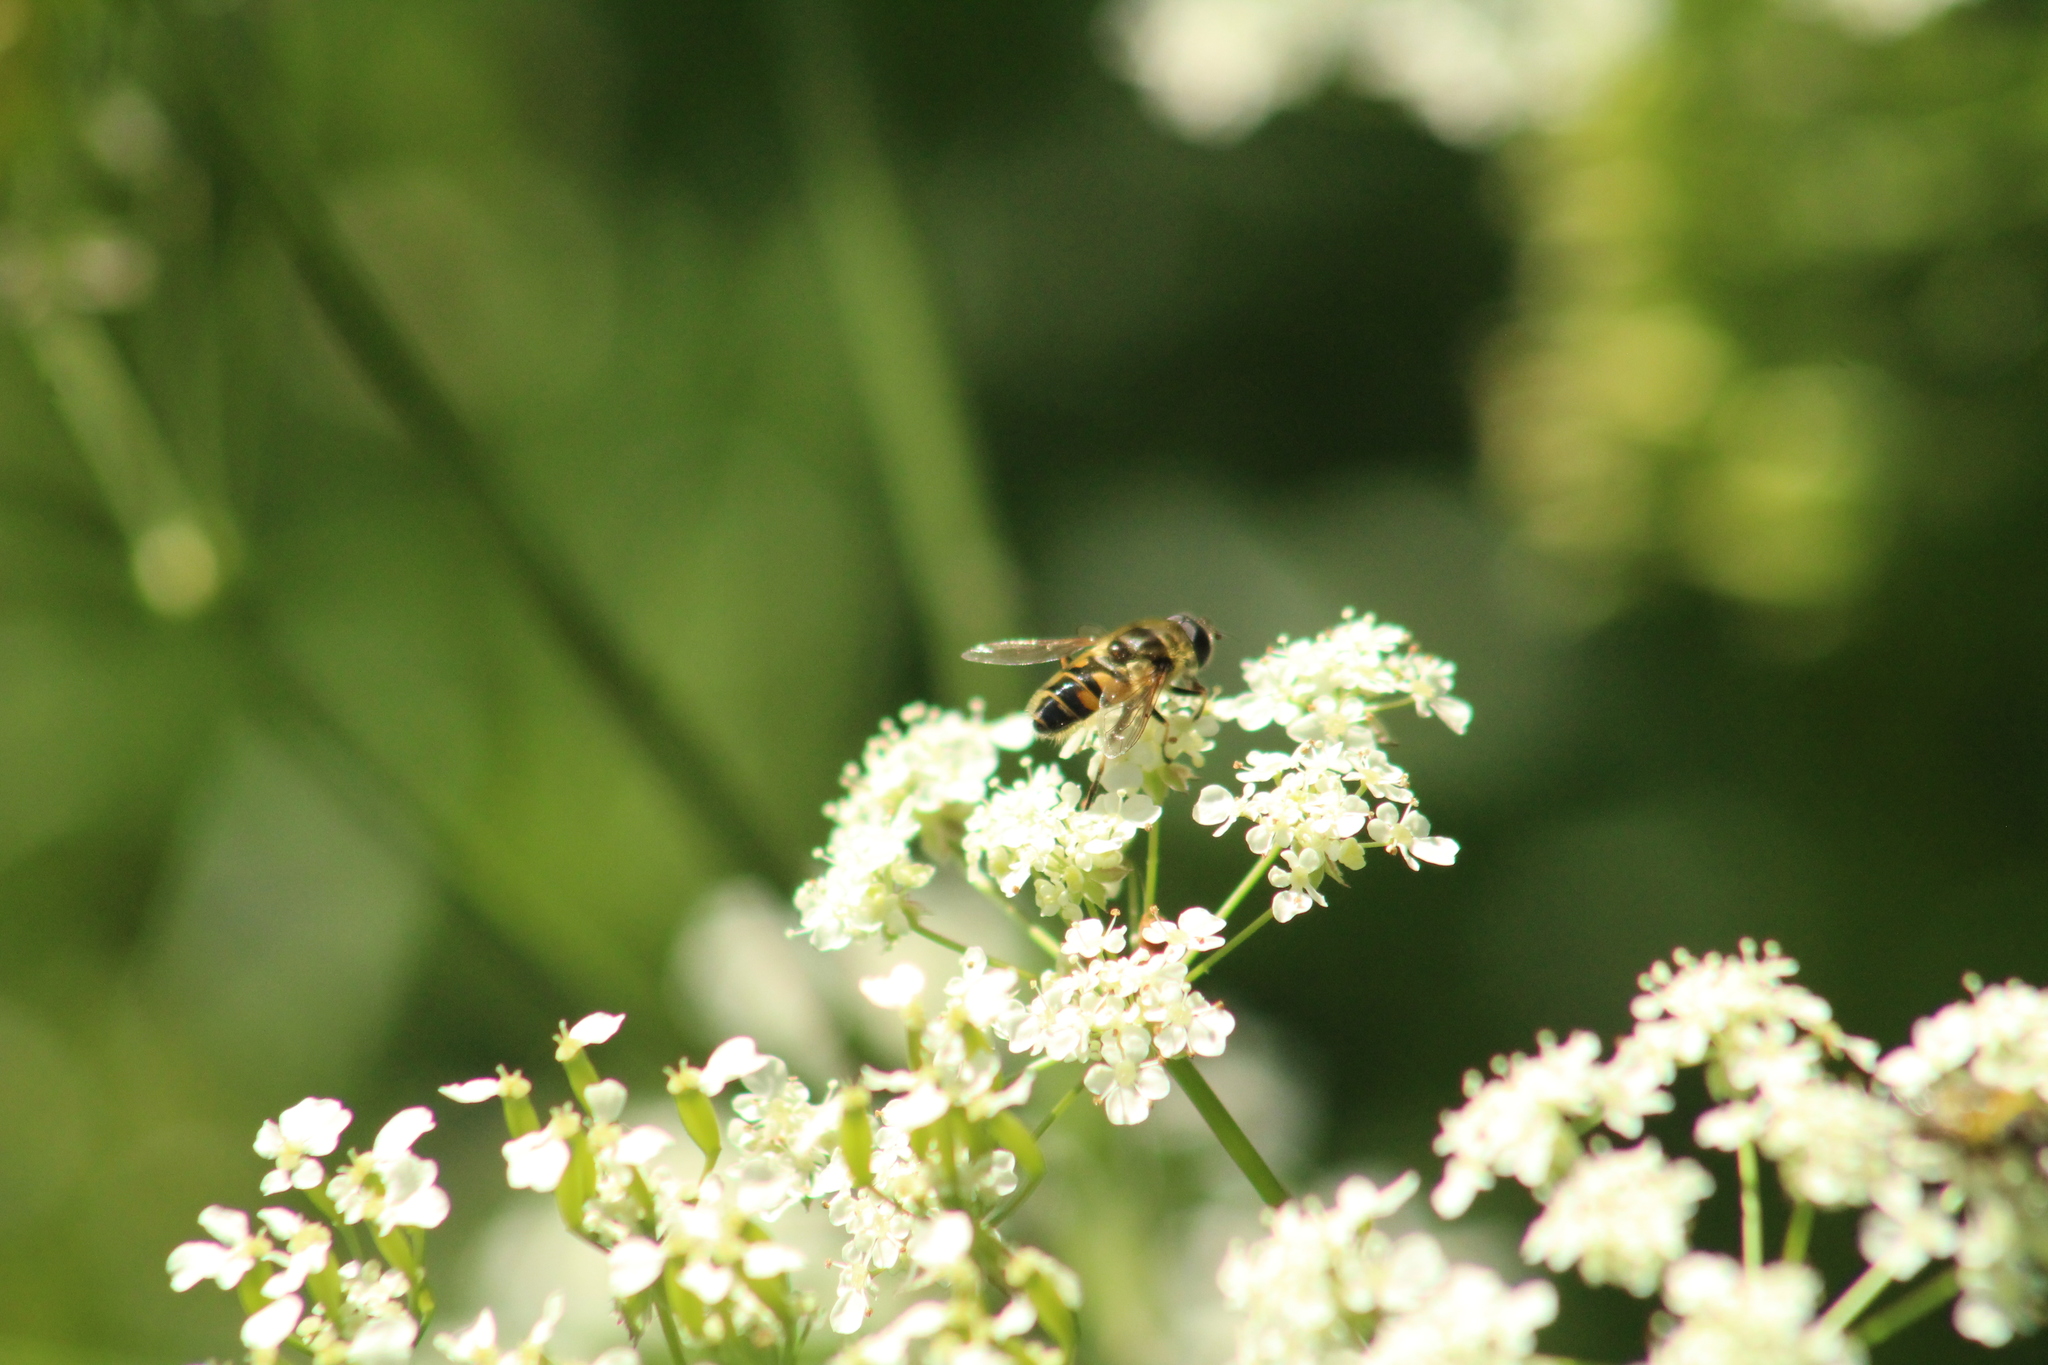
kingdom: Animalia
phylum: Arthropoda
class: Insecta
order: Diptera
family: Syrphidae
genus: Myathropa
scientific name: Myathropa florea
